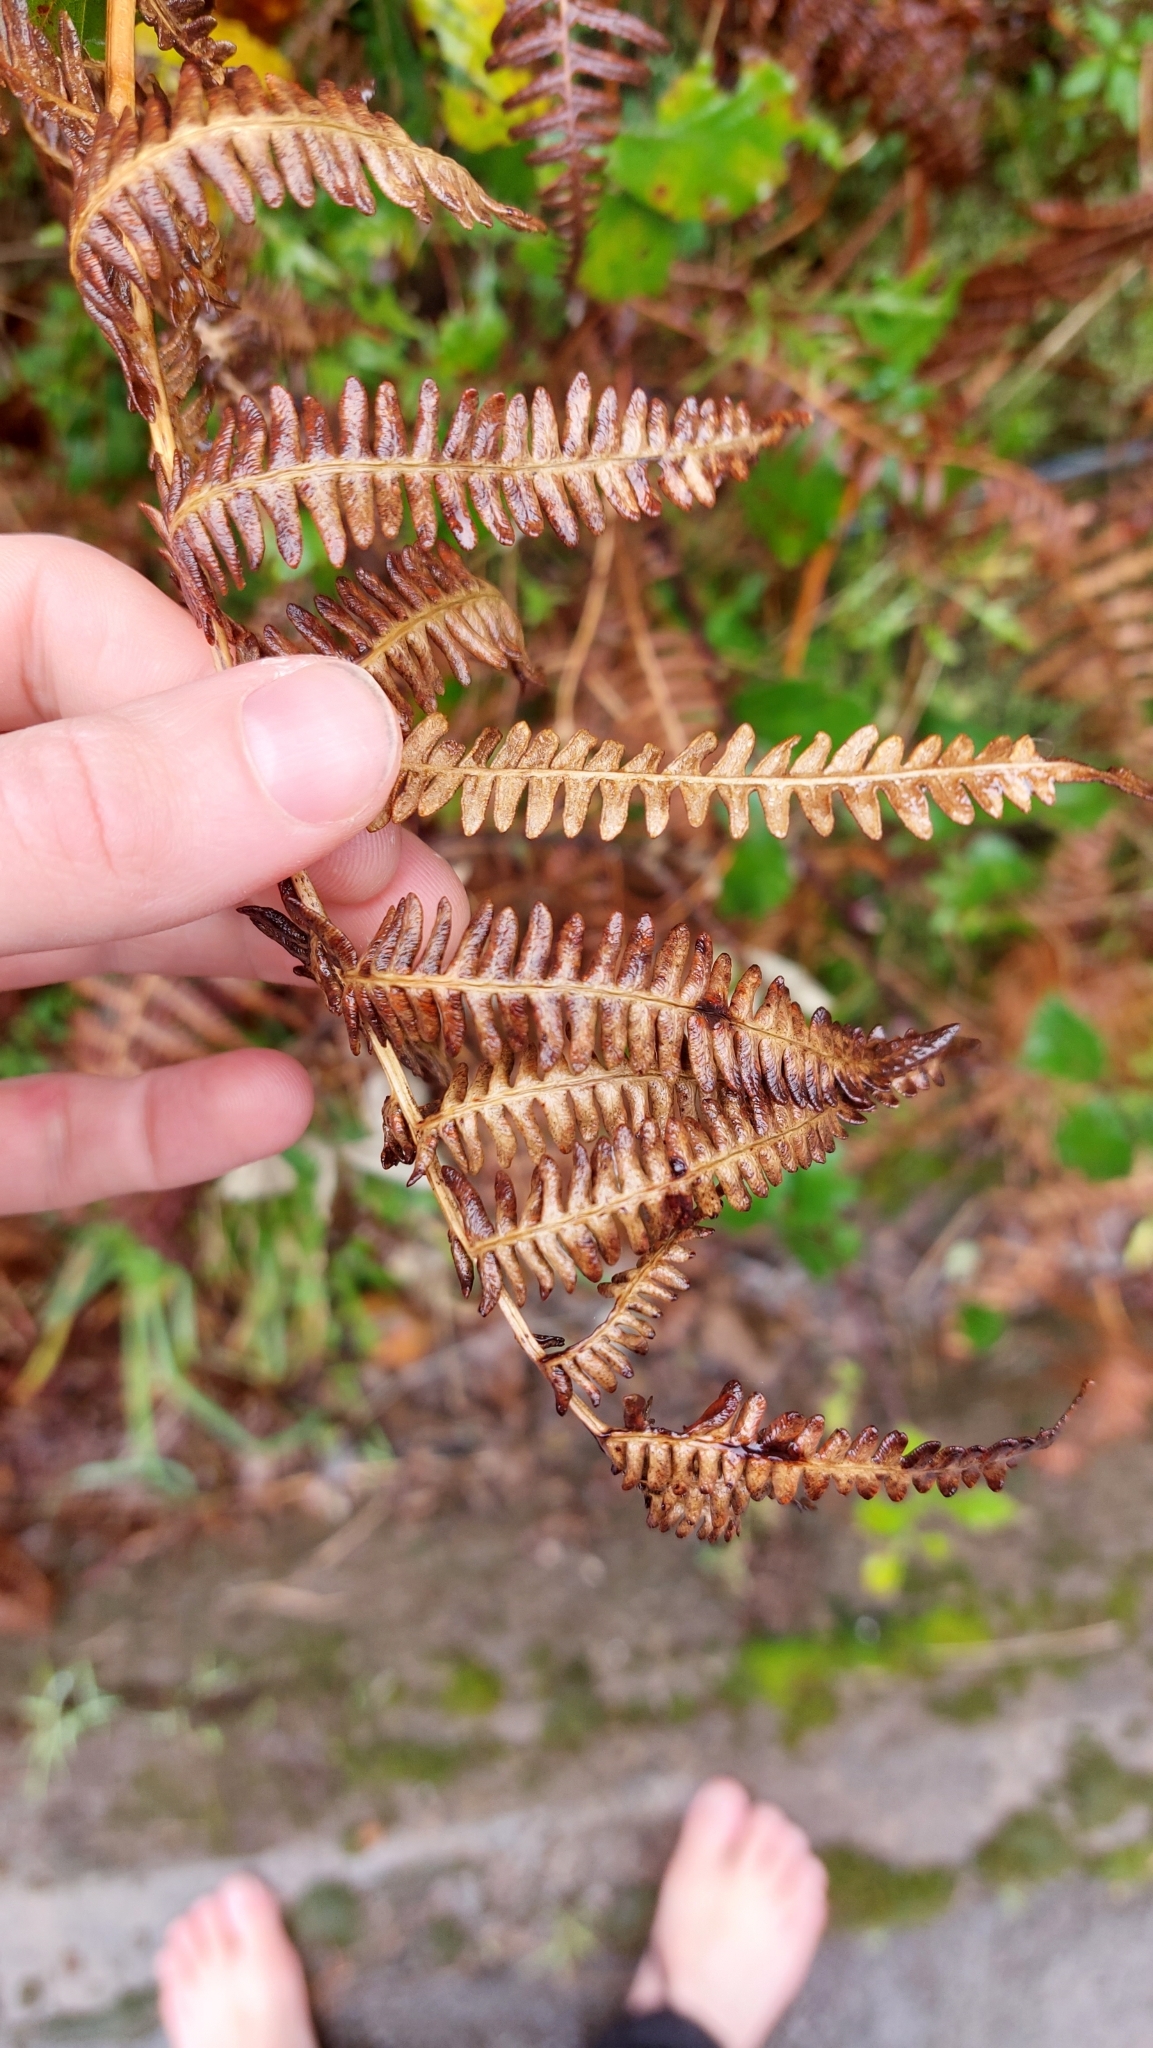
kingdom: Plantae
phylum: Tracheophyta
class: Polypodiopsida
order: Polypodiales
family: Dennstaedtiaceae
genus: Pteridium
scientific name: Pteridium aquilinum
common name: Bracken
